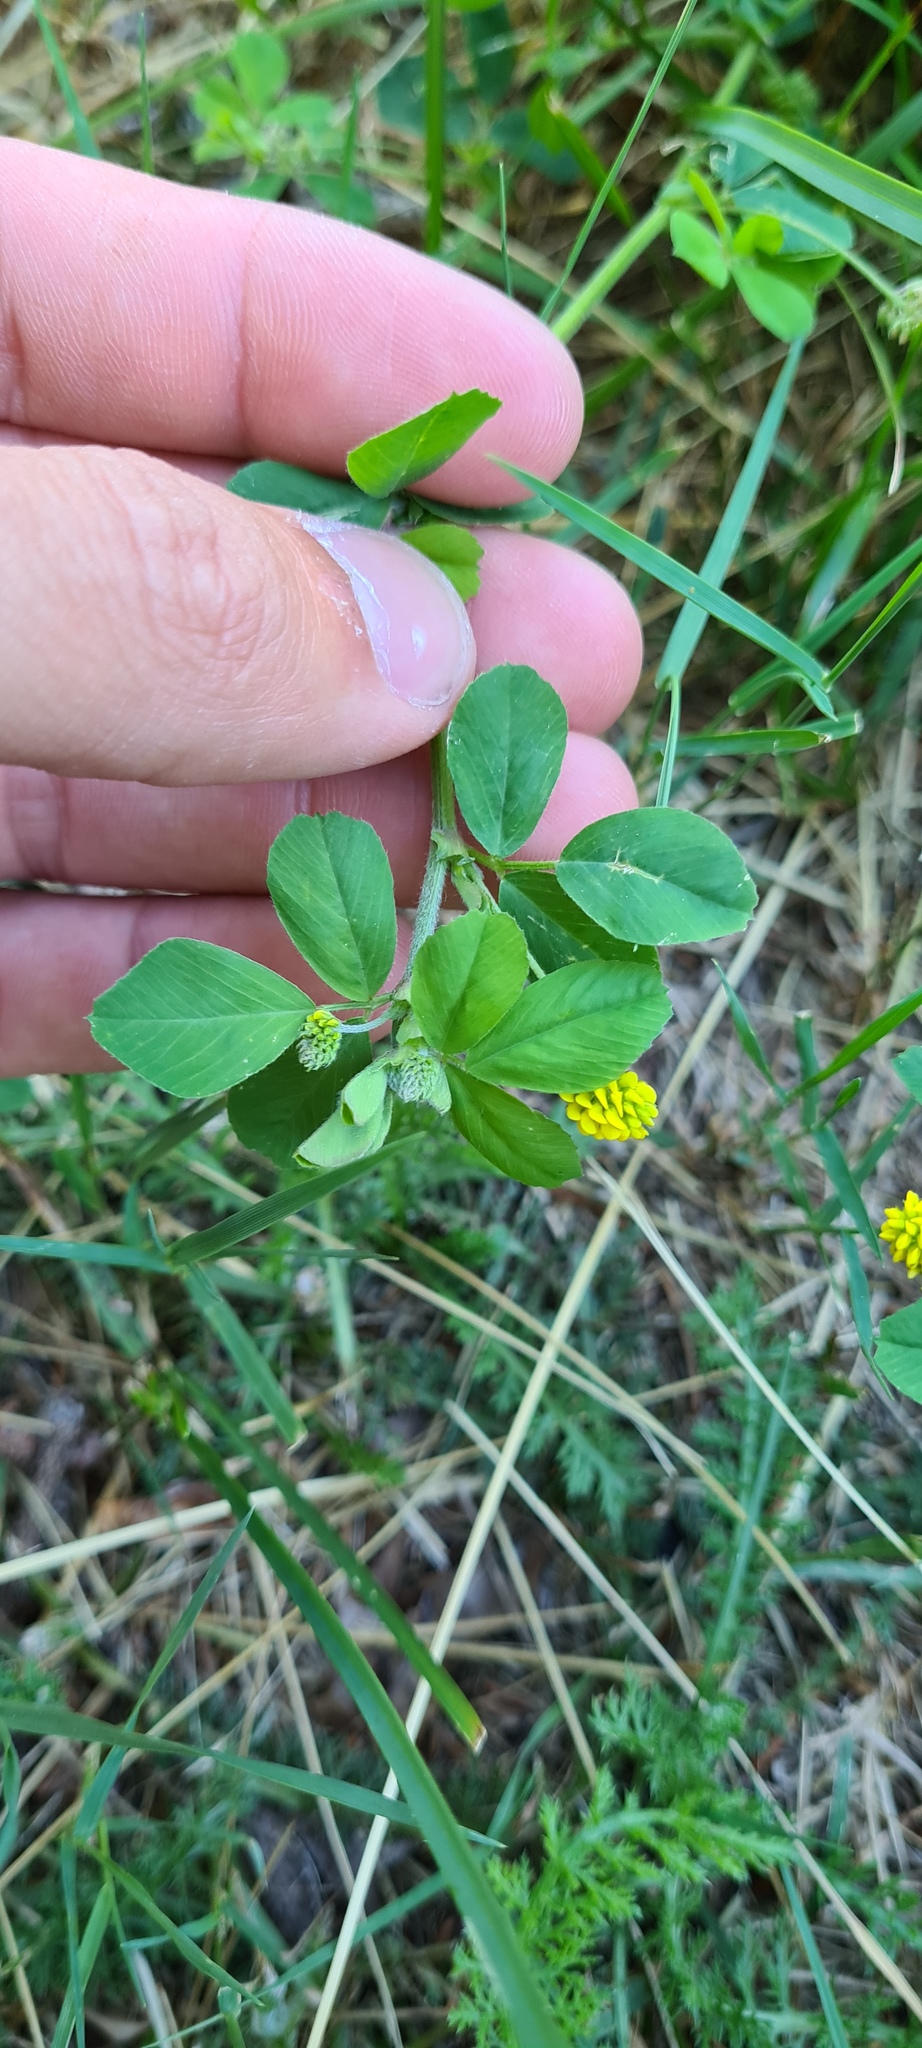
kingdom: Plantae
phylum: Tracheophyta
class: Magnoliopsida
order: Fabales
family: Fabaceae
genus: Medicago
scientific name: Medicago lupulina
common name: Black medick
